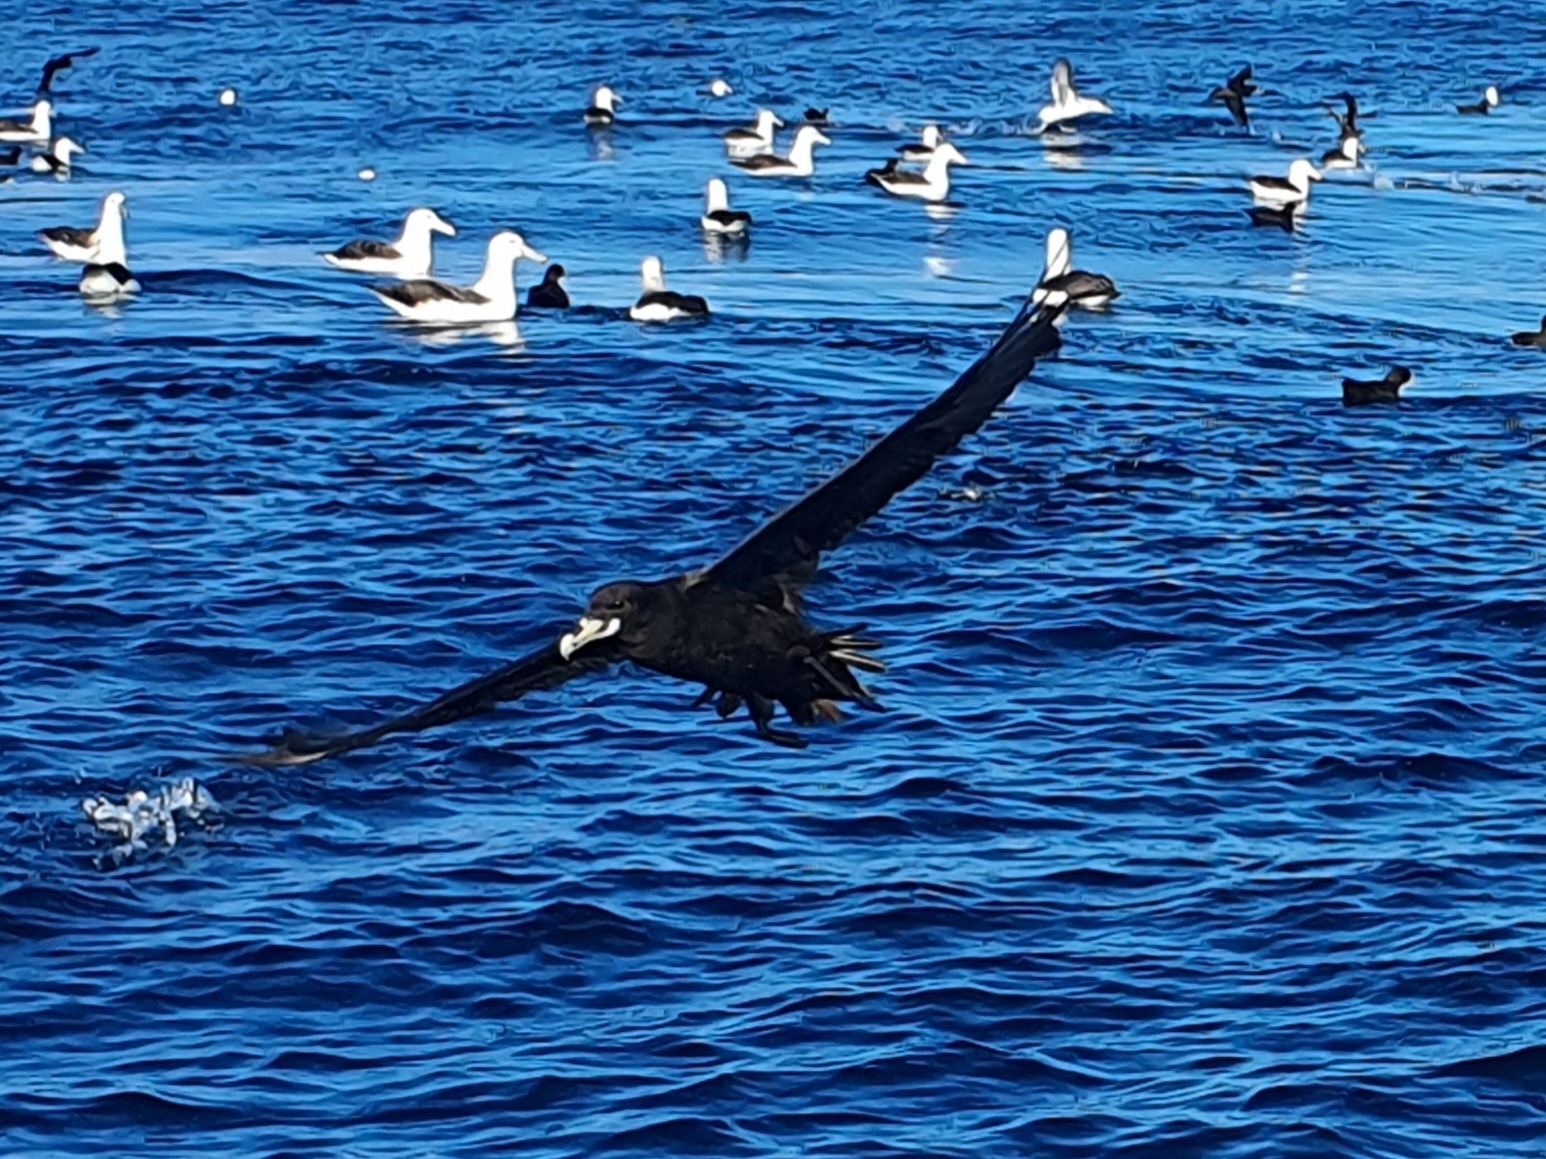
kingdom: Animalia
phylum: Chordata
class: Aves
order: Procellariiformes
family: Procellariidae
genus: Procellaria
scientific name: Procellaria aequinoctialis
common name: White-chinned petrel
